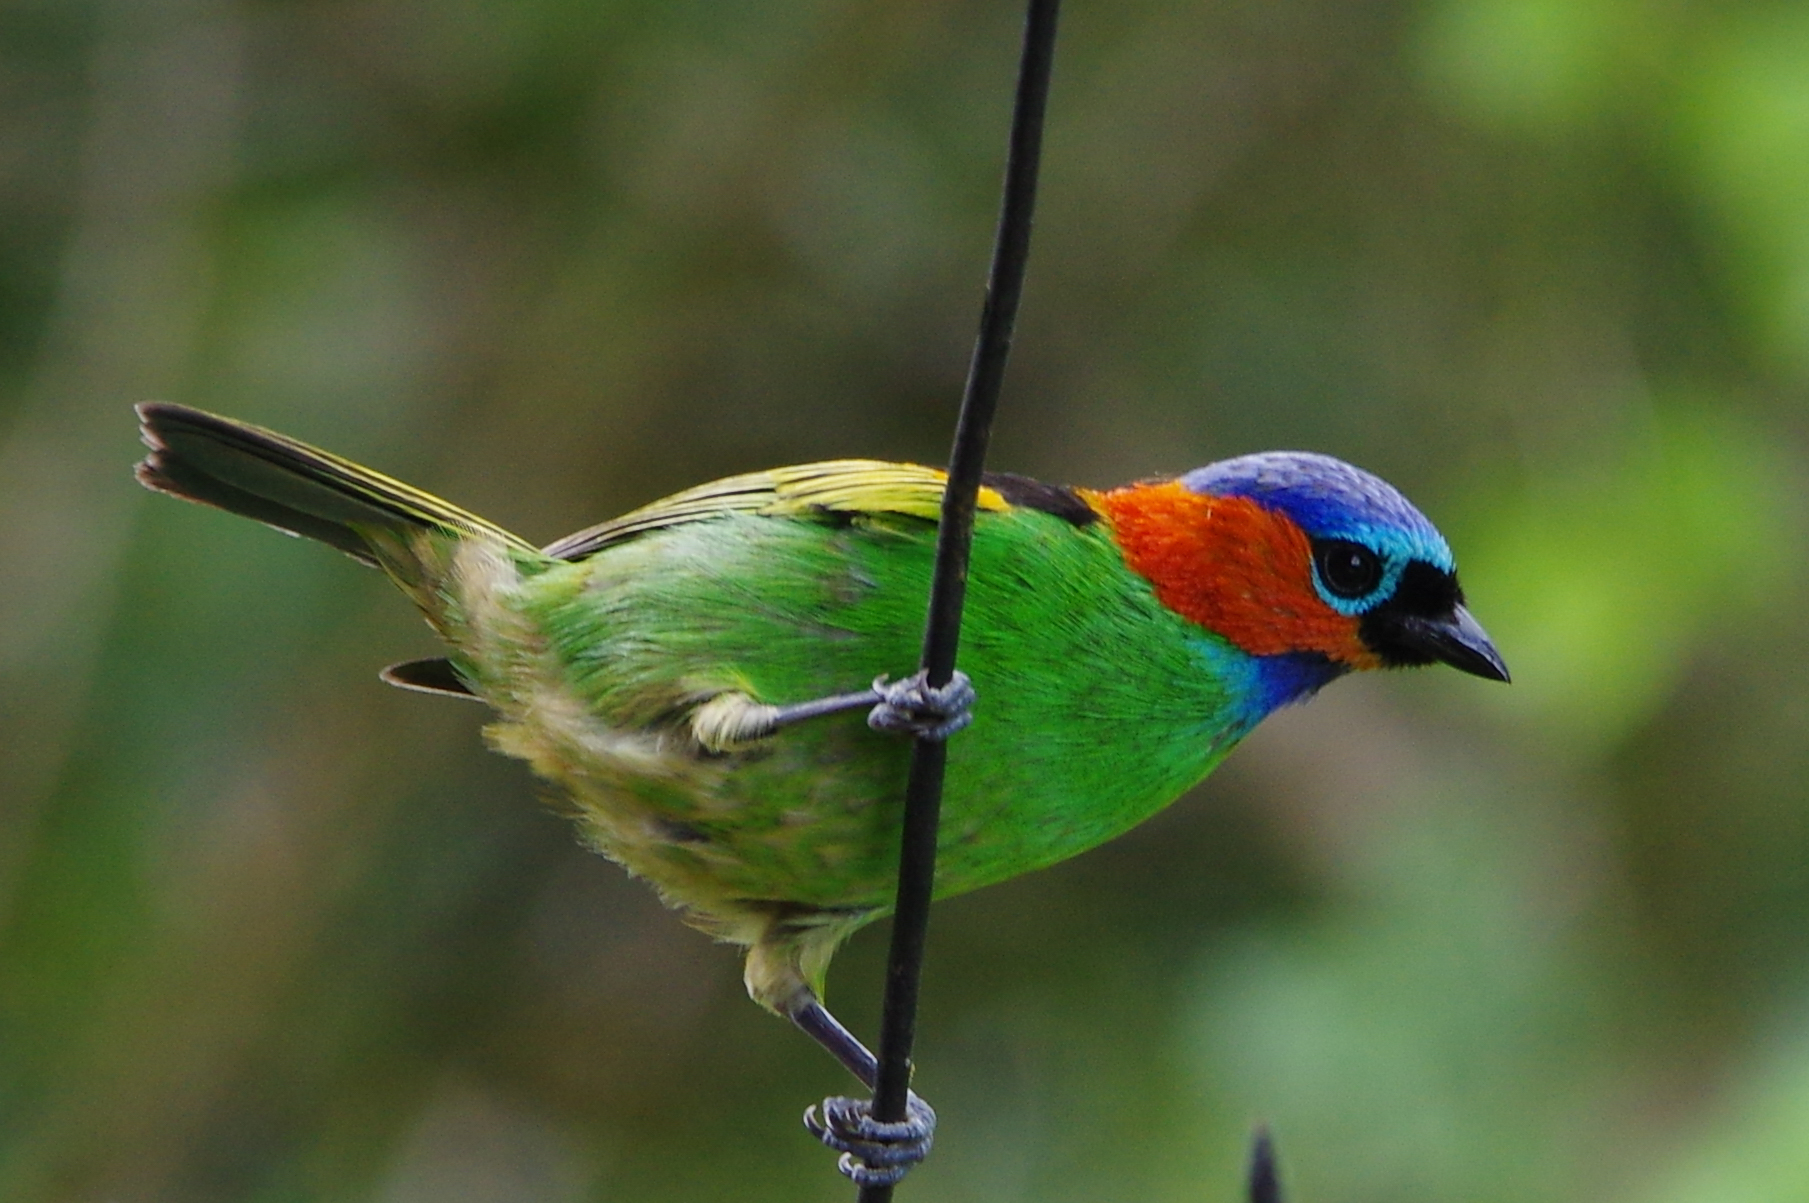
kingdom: Animalia
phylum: Chordata
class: Aves
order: Passeriformes
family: Thraupidae
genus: Tangara
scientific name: Tangara cyanocephala
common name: Red-necked tanager
